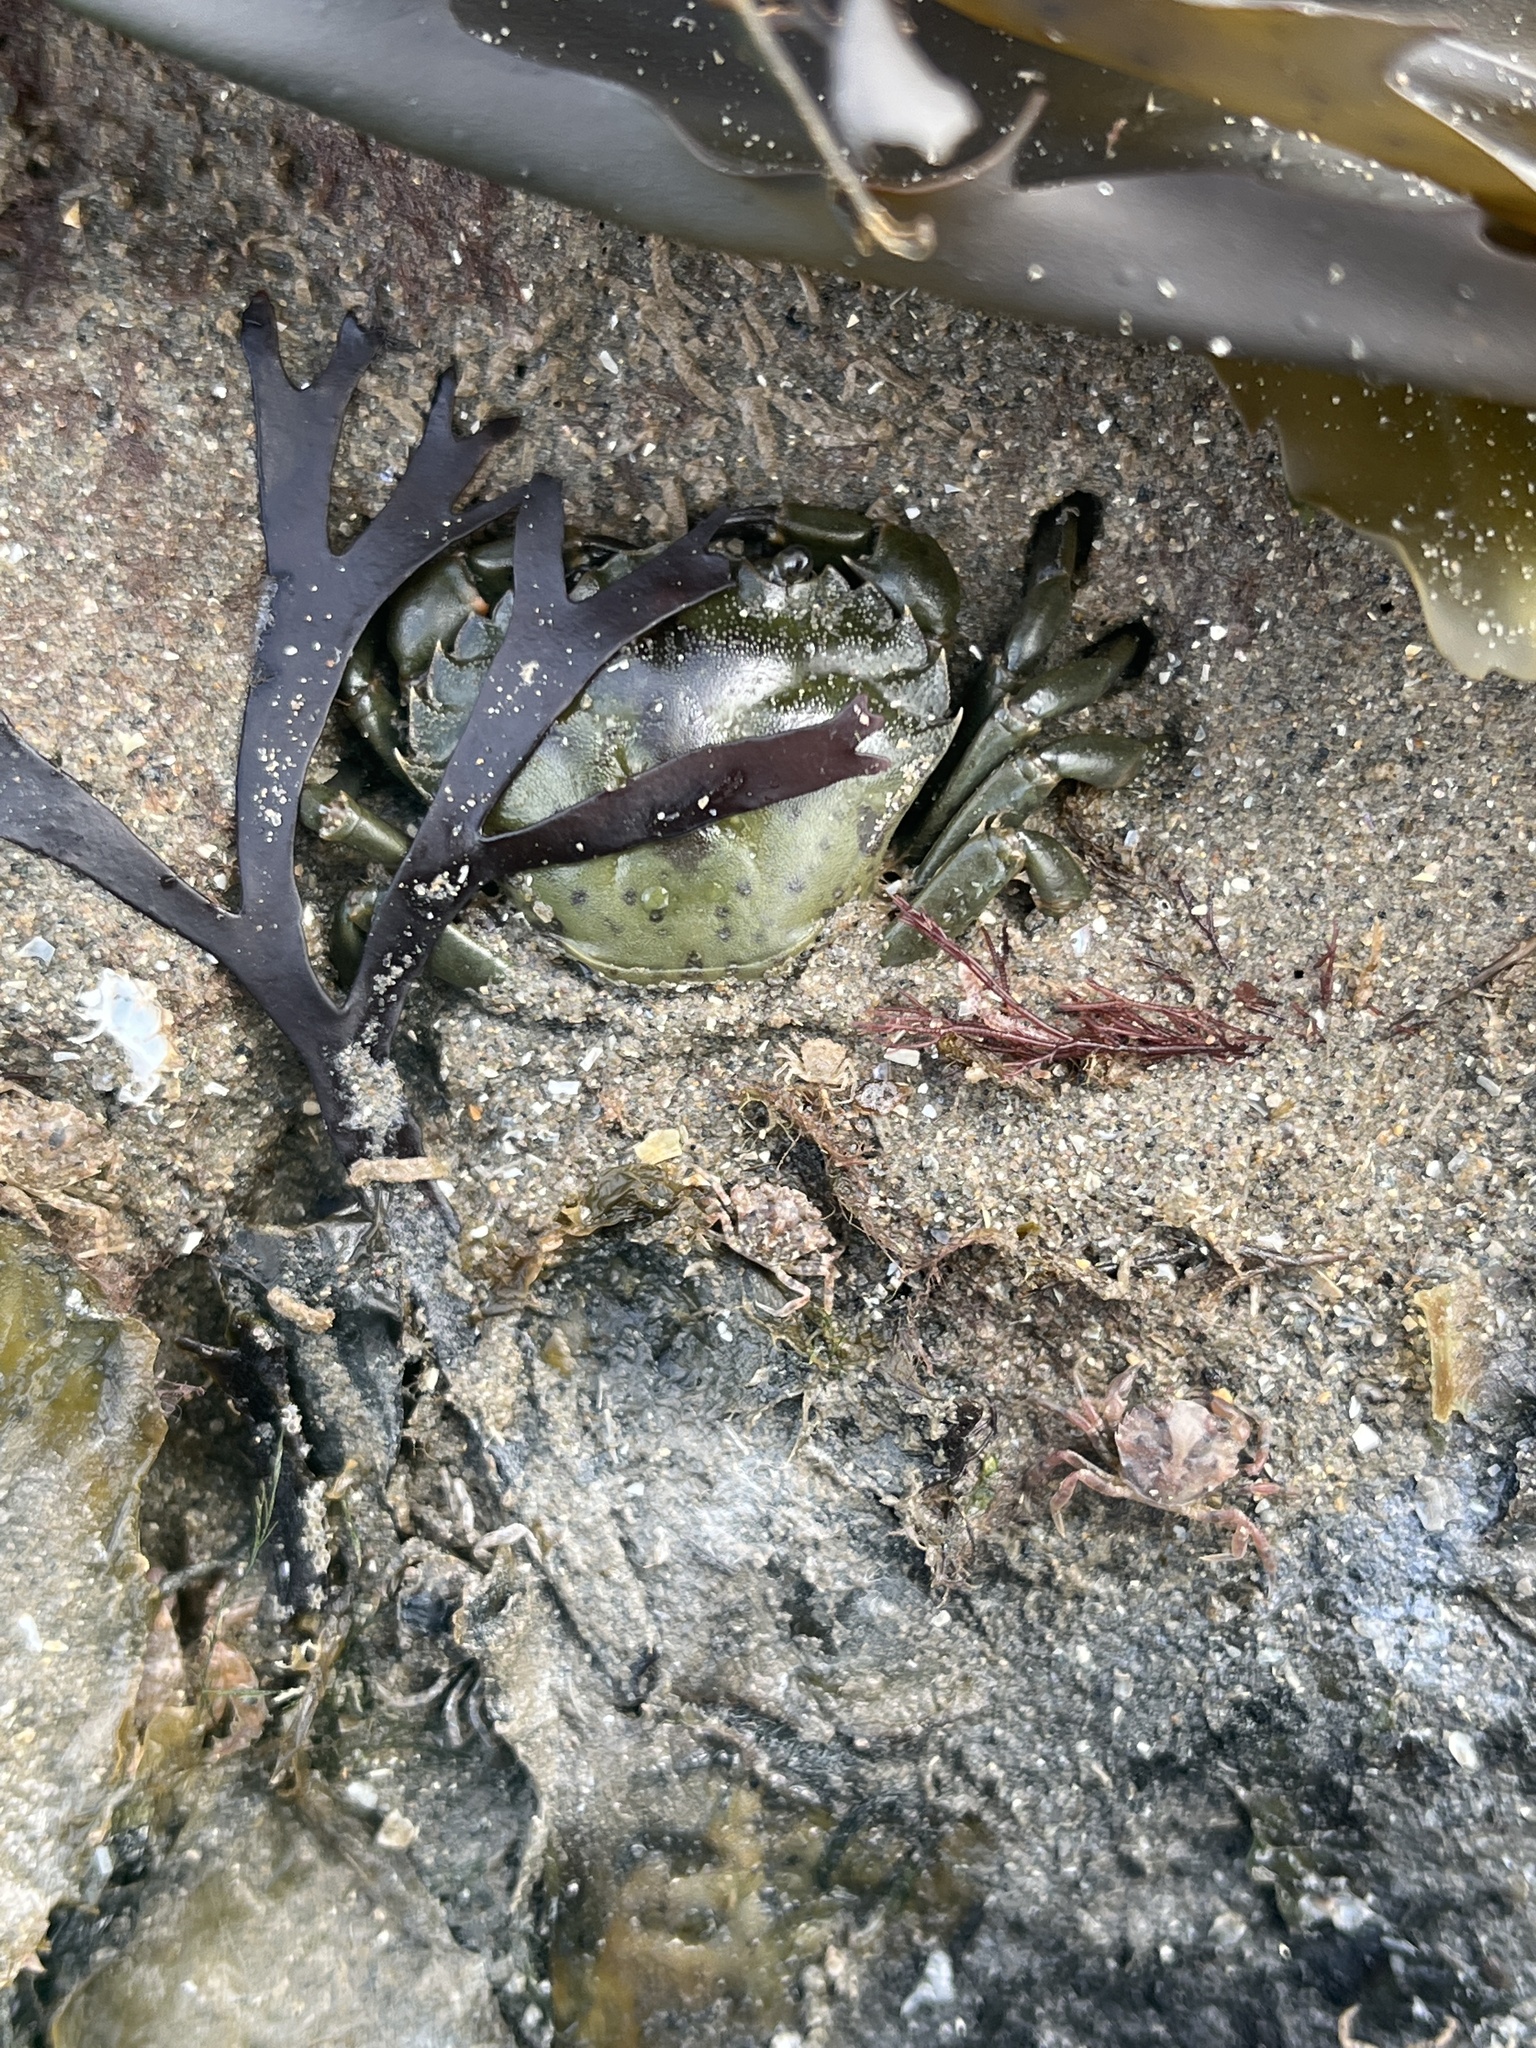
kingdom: Animalia
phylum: Arthropoda
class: Malacostraca
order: Decapoda
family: Carcinidae
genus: Carcinus
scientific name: Carcinus maenas
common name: European green crab
